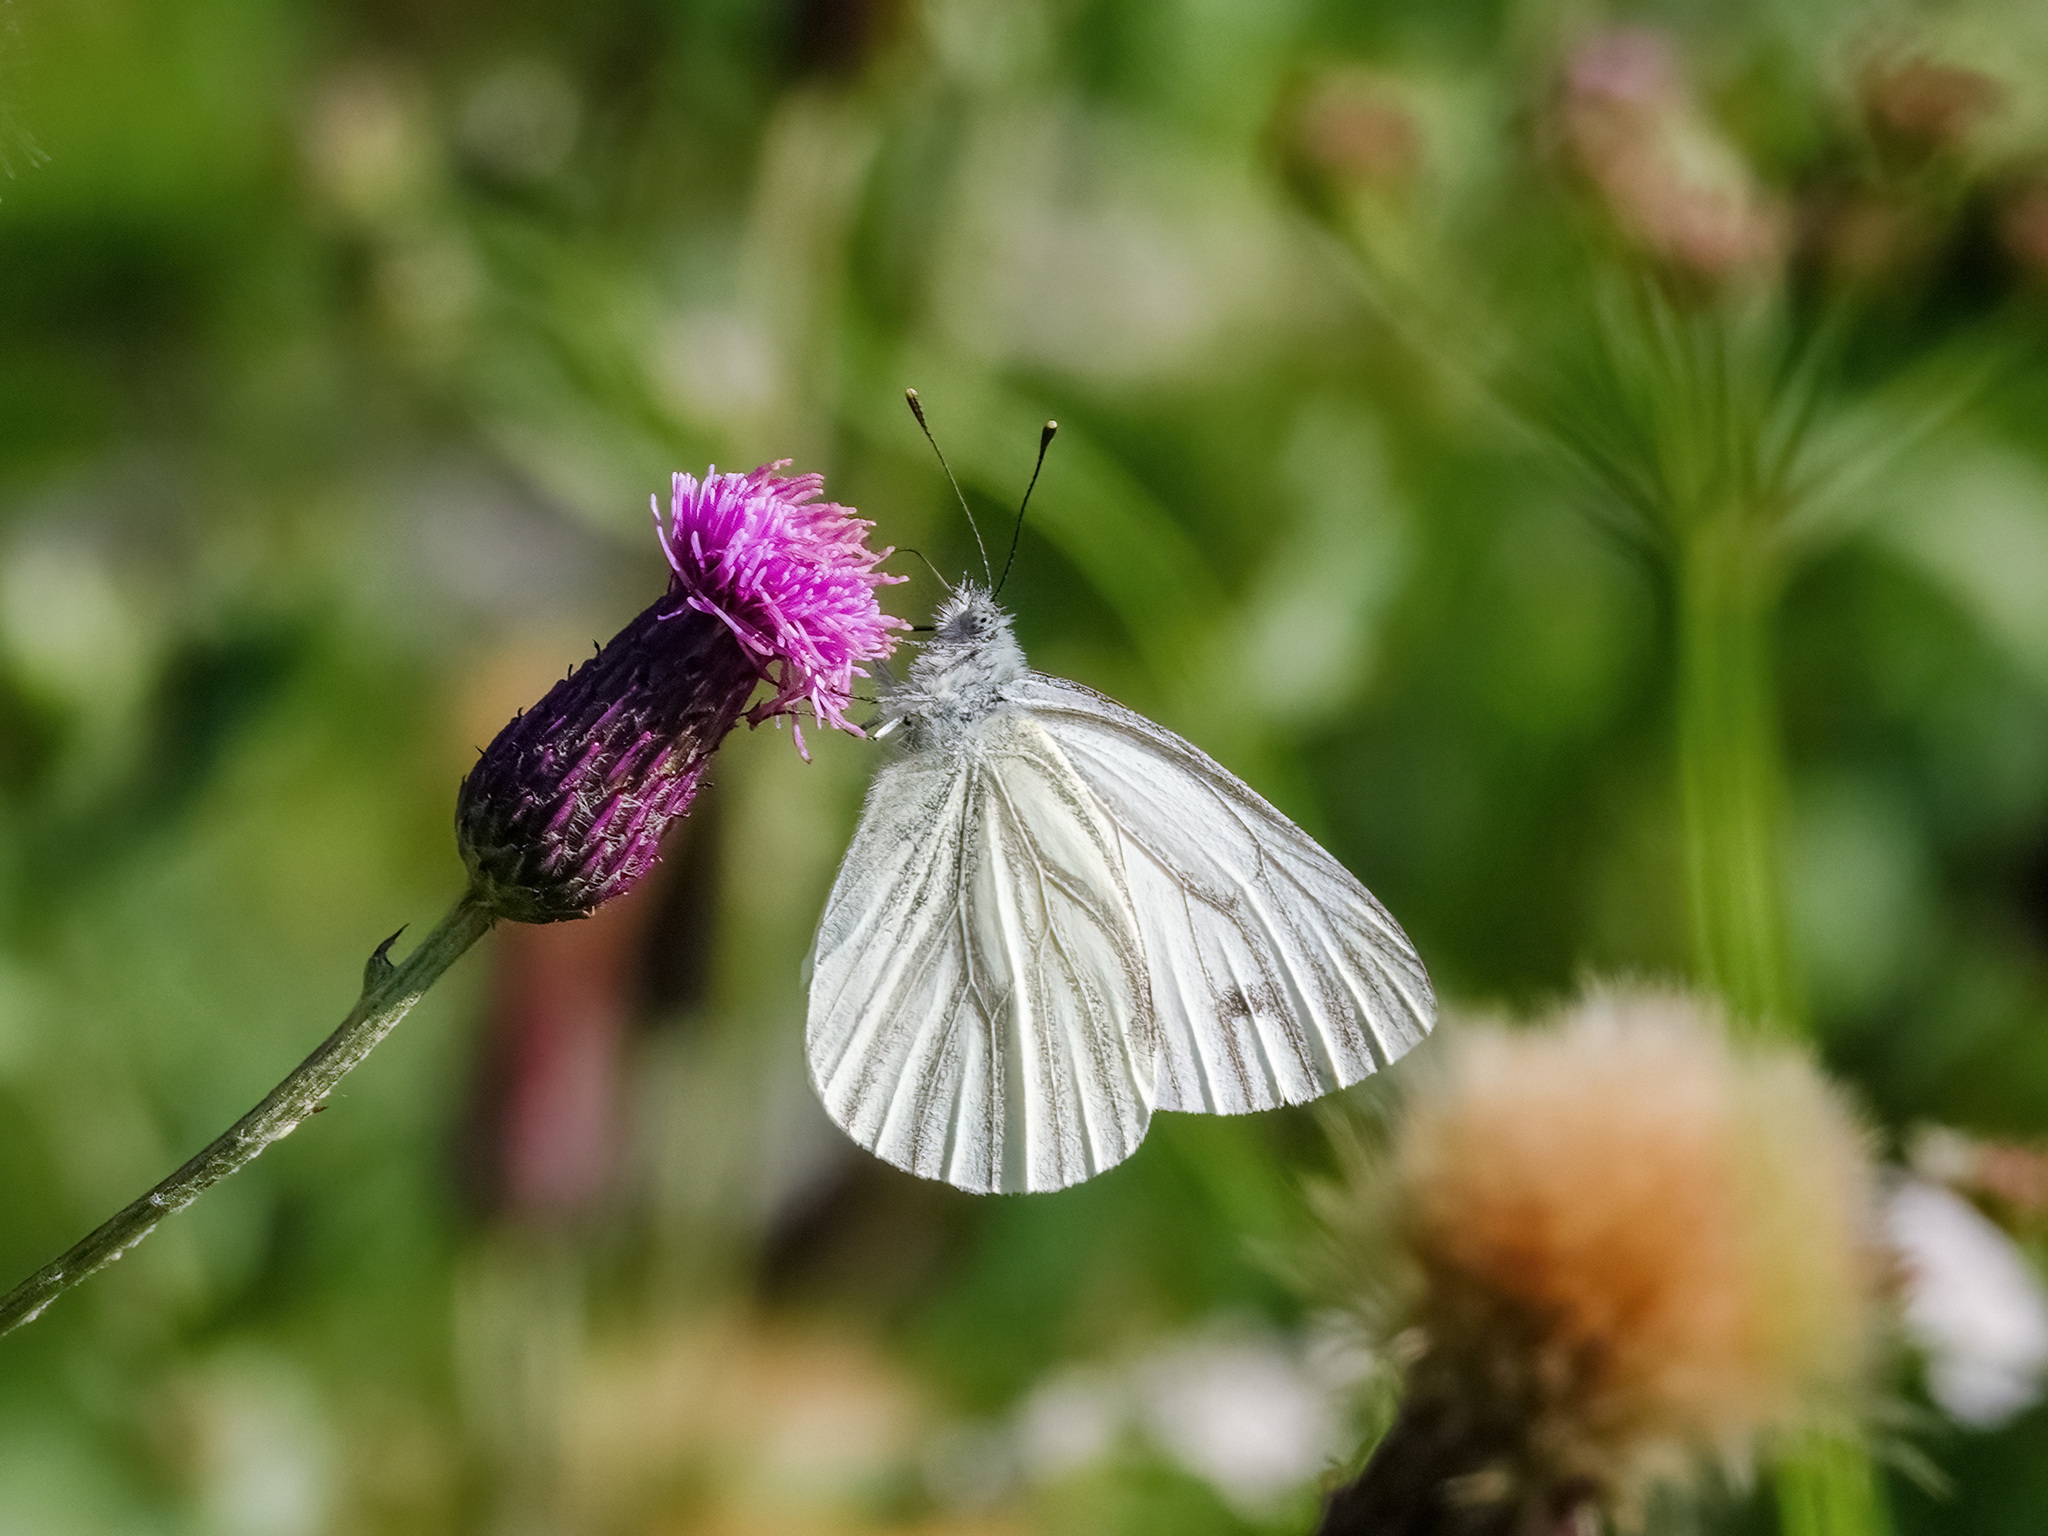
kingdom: Animalia
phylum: Arthropoda
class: Insecta
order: Lepidoptera
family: Pieridae
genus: Pieris
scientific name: Pieris napi
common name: Green-veined white
